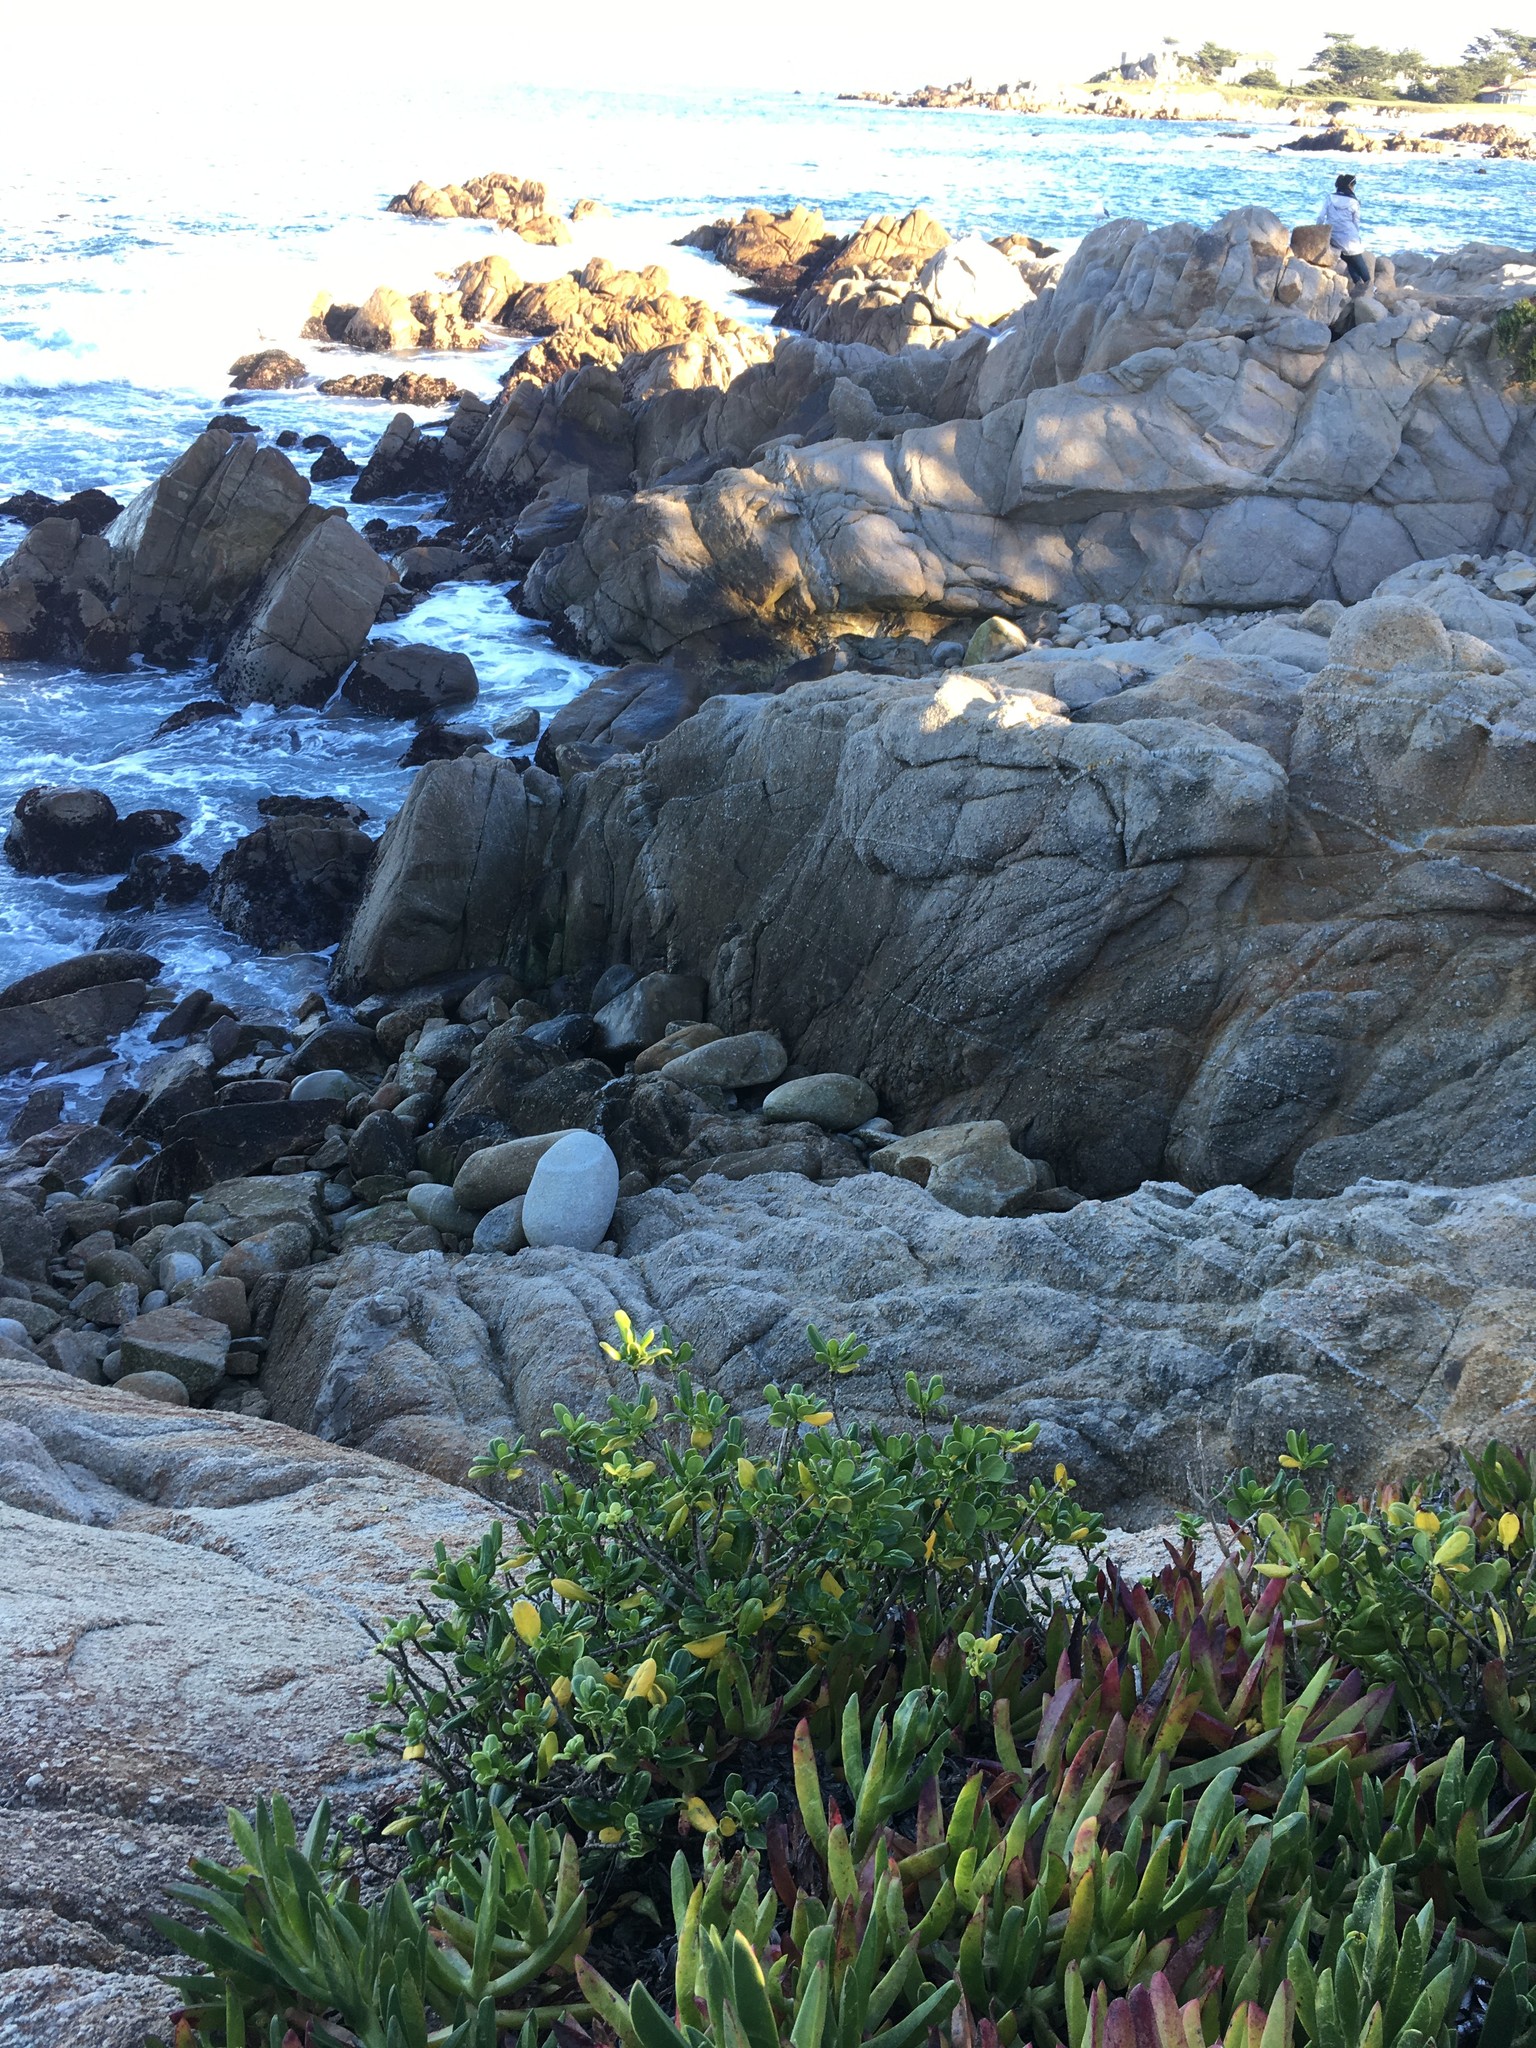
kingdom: Plantae
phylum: Tracheophyta
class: Magnoliopsida
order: Gentianales
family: Rubiaceae
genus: Coprosma
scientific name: Coprosma repens
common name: Tree bedstraw
